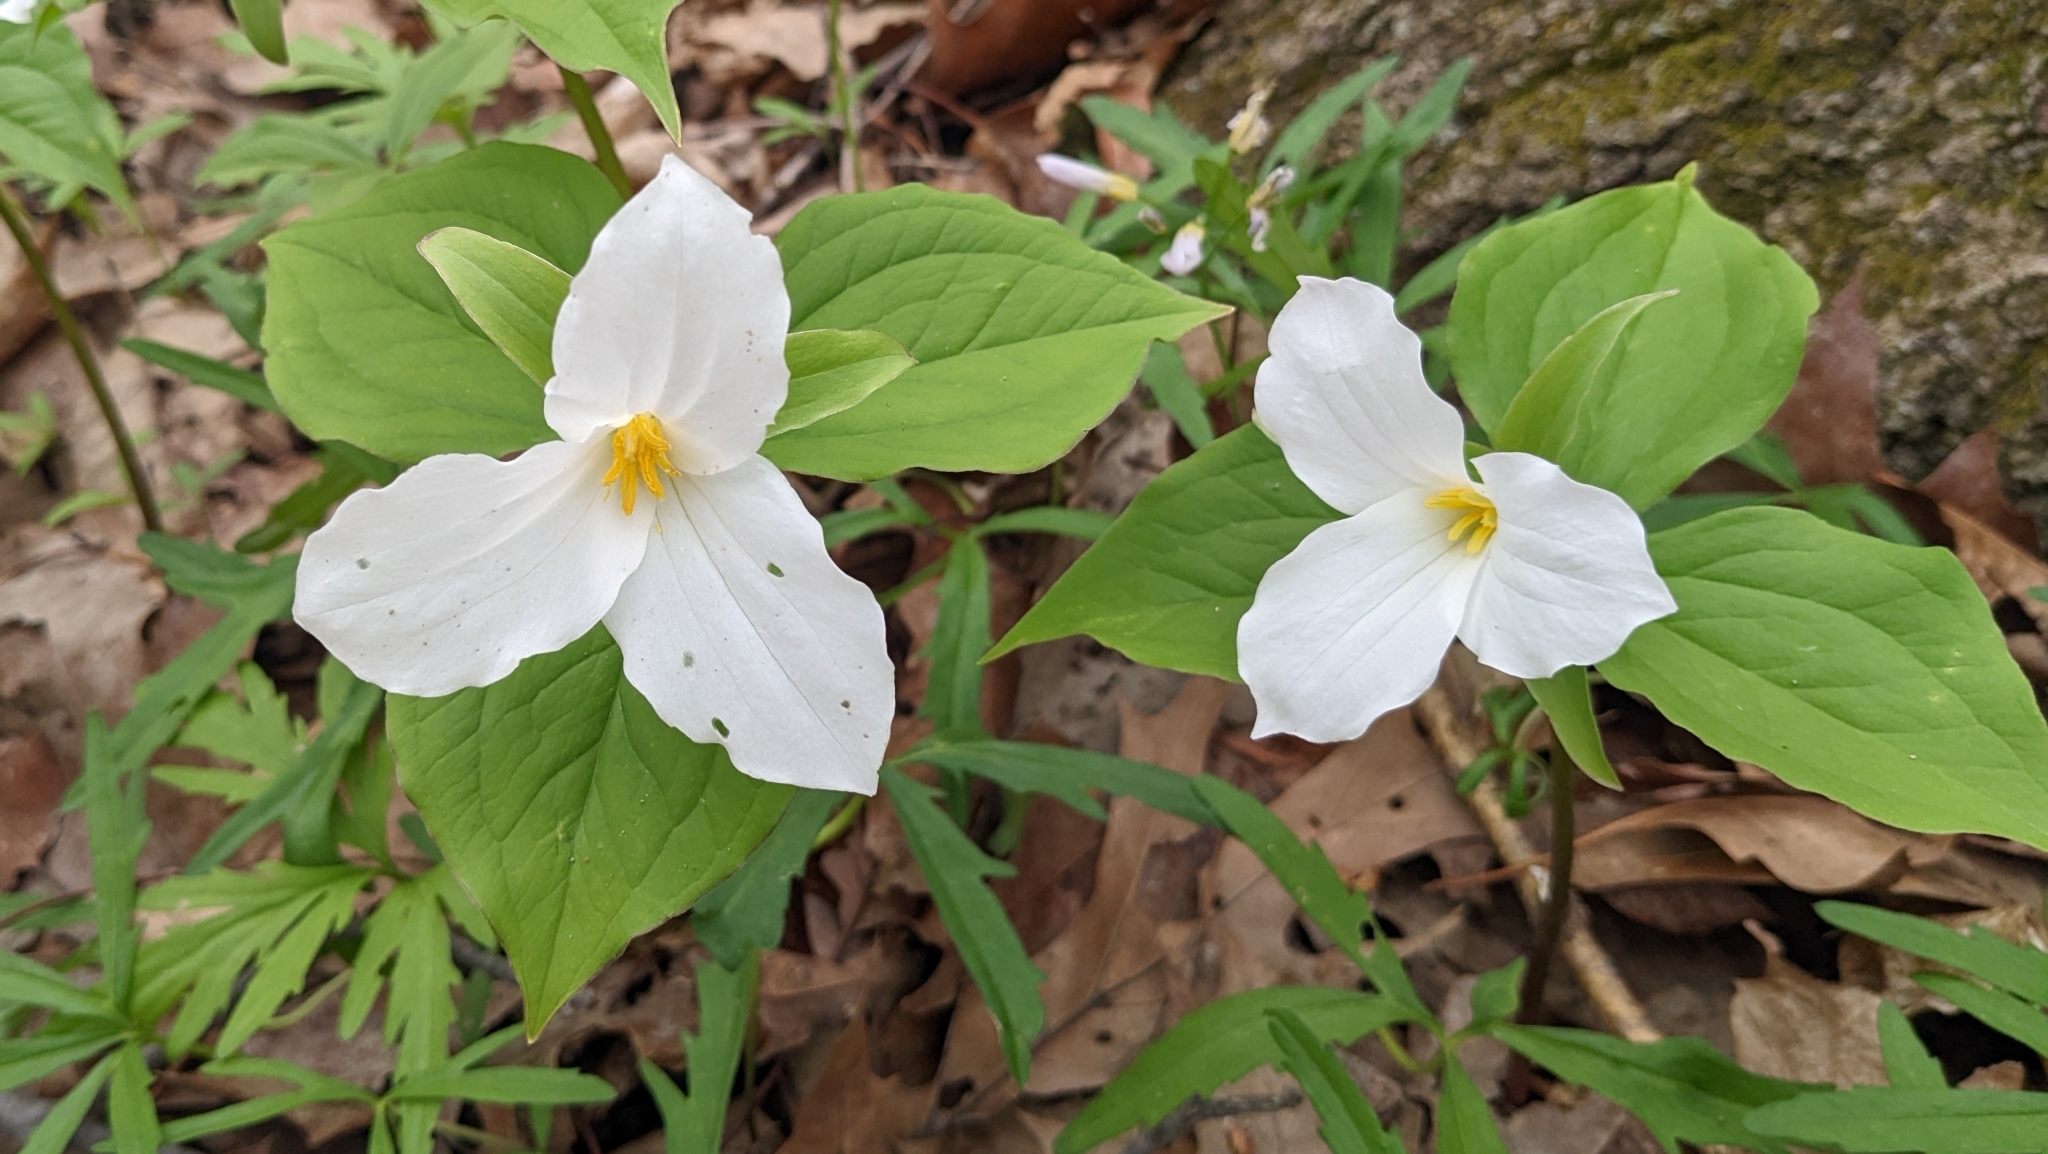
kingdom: Plantae
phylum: Tracheophyta
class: Liliopsida
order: Liliales
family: Melanthiaceae
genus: Trillium
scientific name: Trillium grandiflorum
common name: Great white trillium
